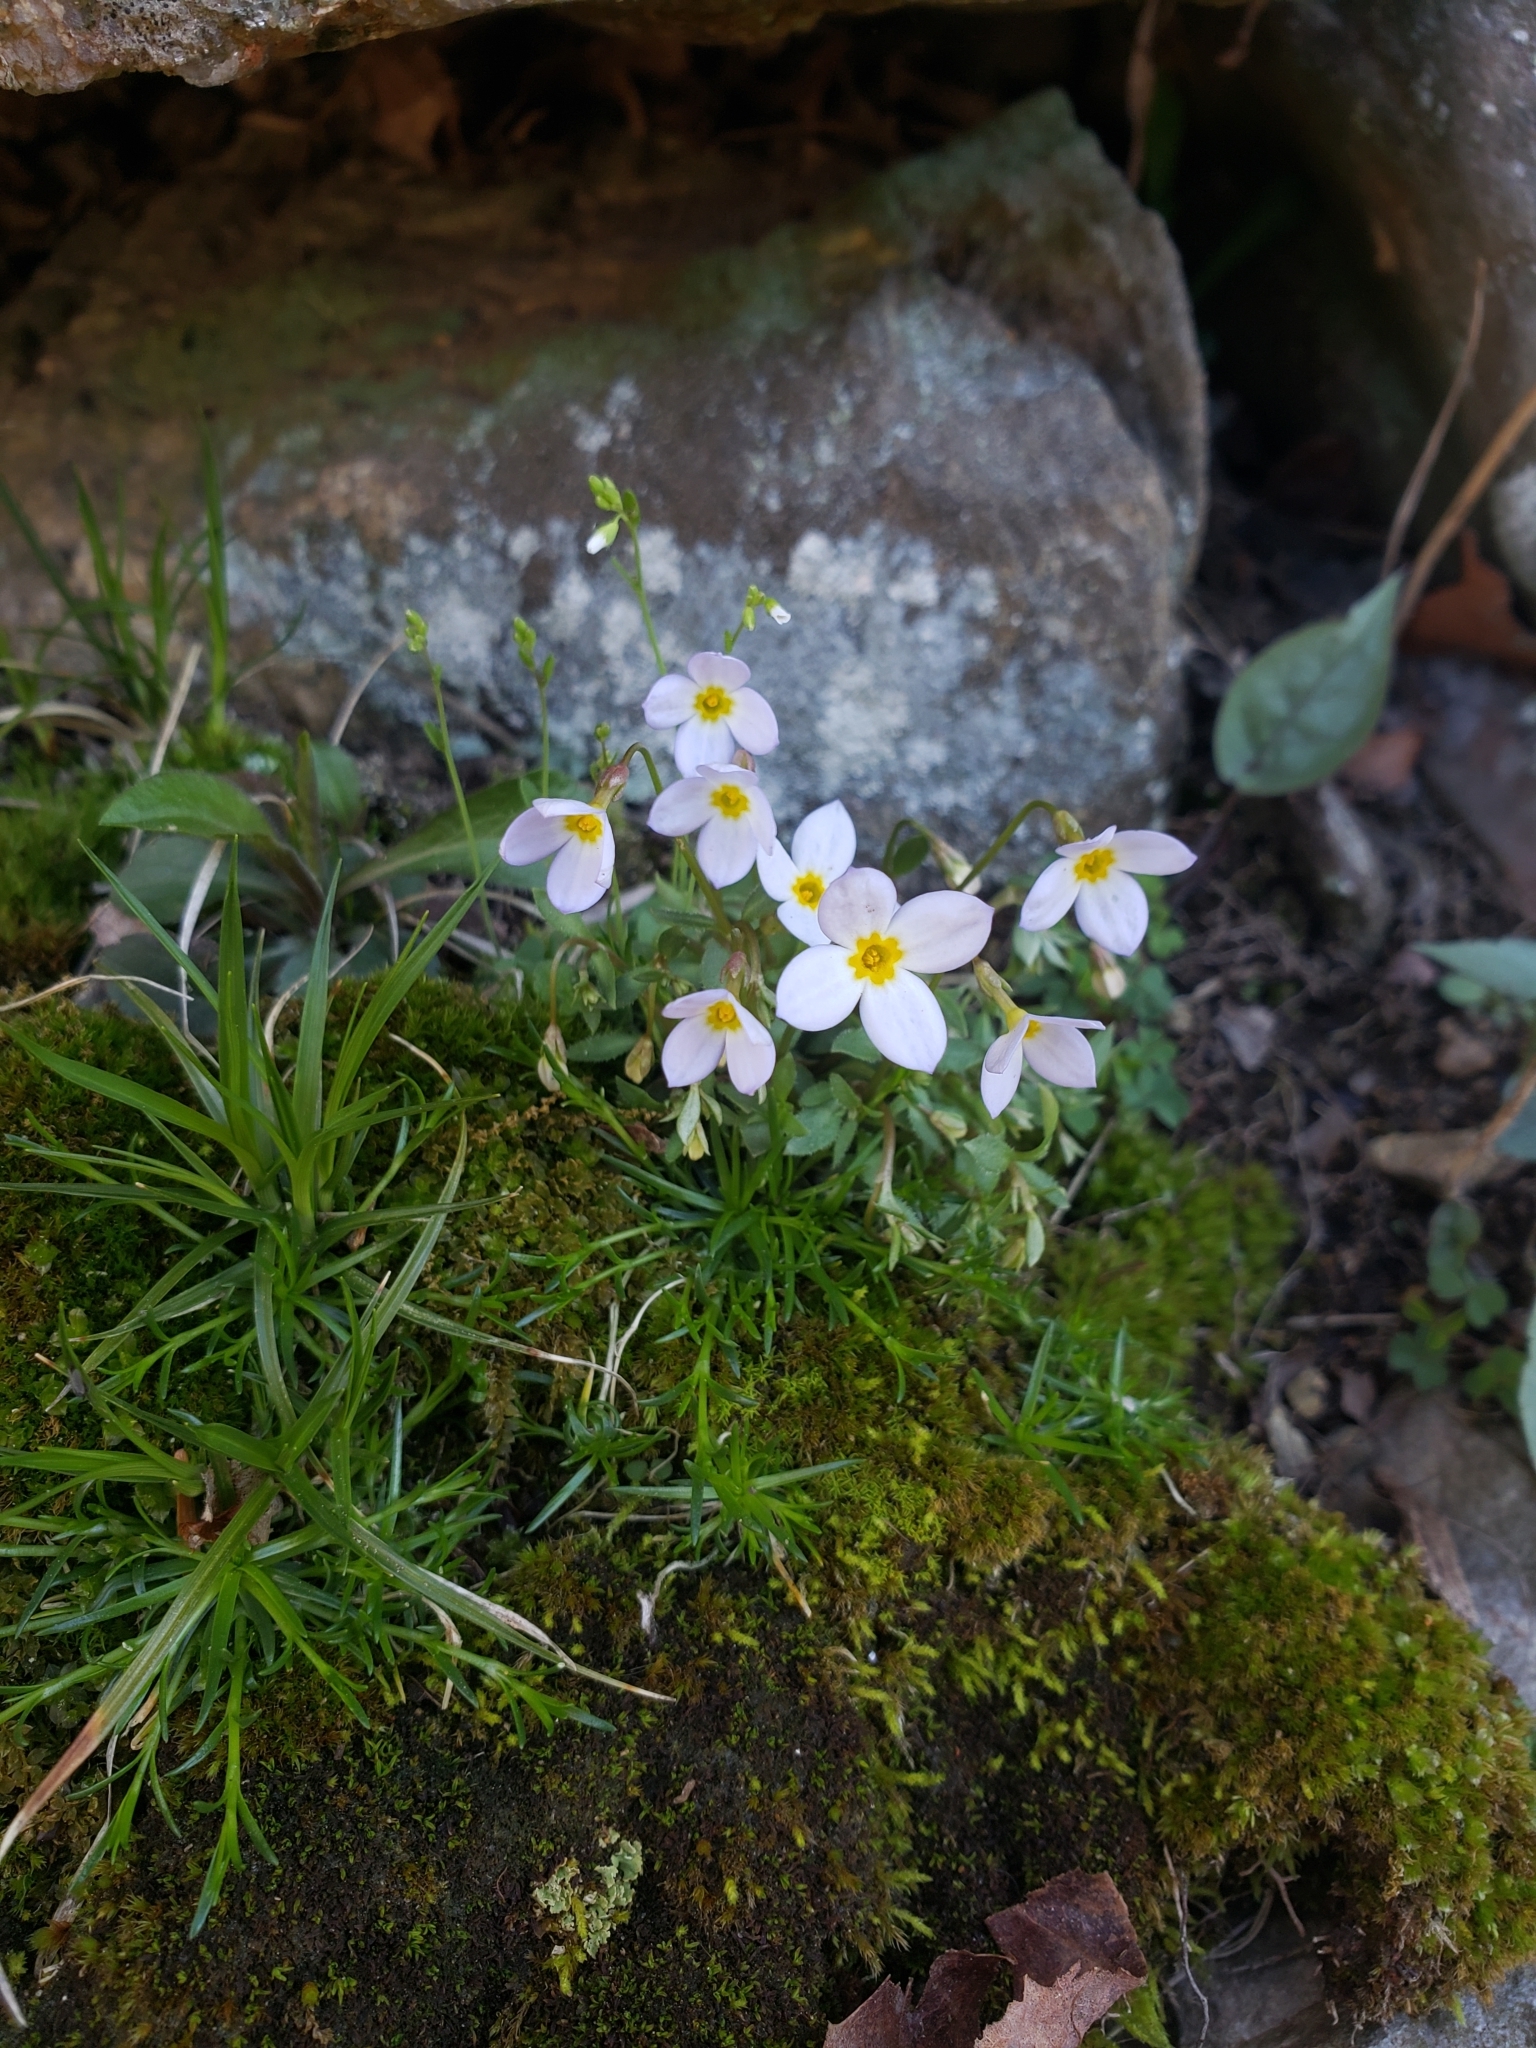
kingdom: Plantae
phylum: Tracheophyta
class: Magnoliopsida
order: Gentianales
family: Rubiaceae
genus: Houstonia
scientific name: Houstonia caerulea
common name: Bluets
